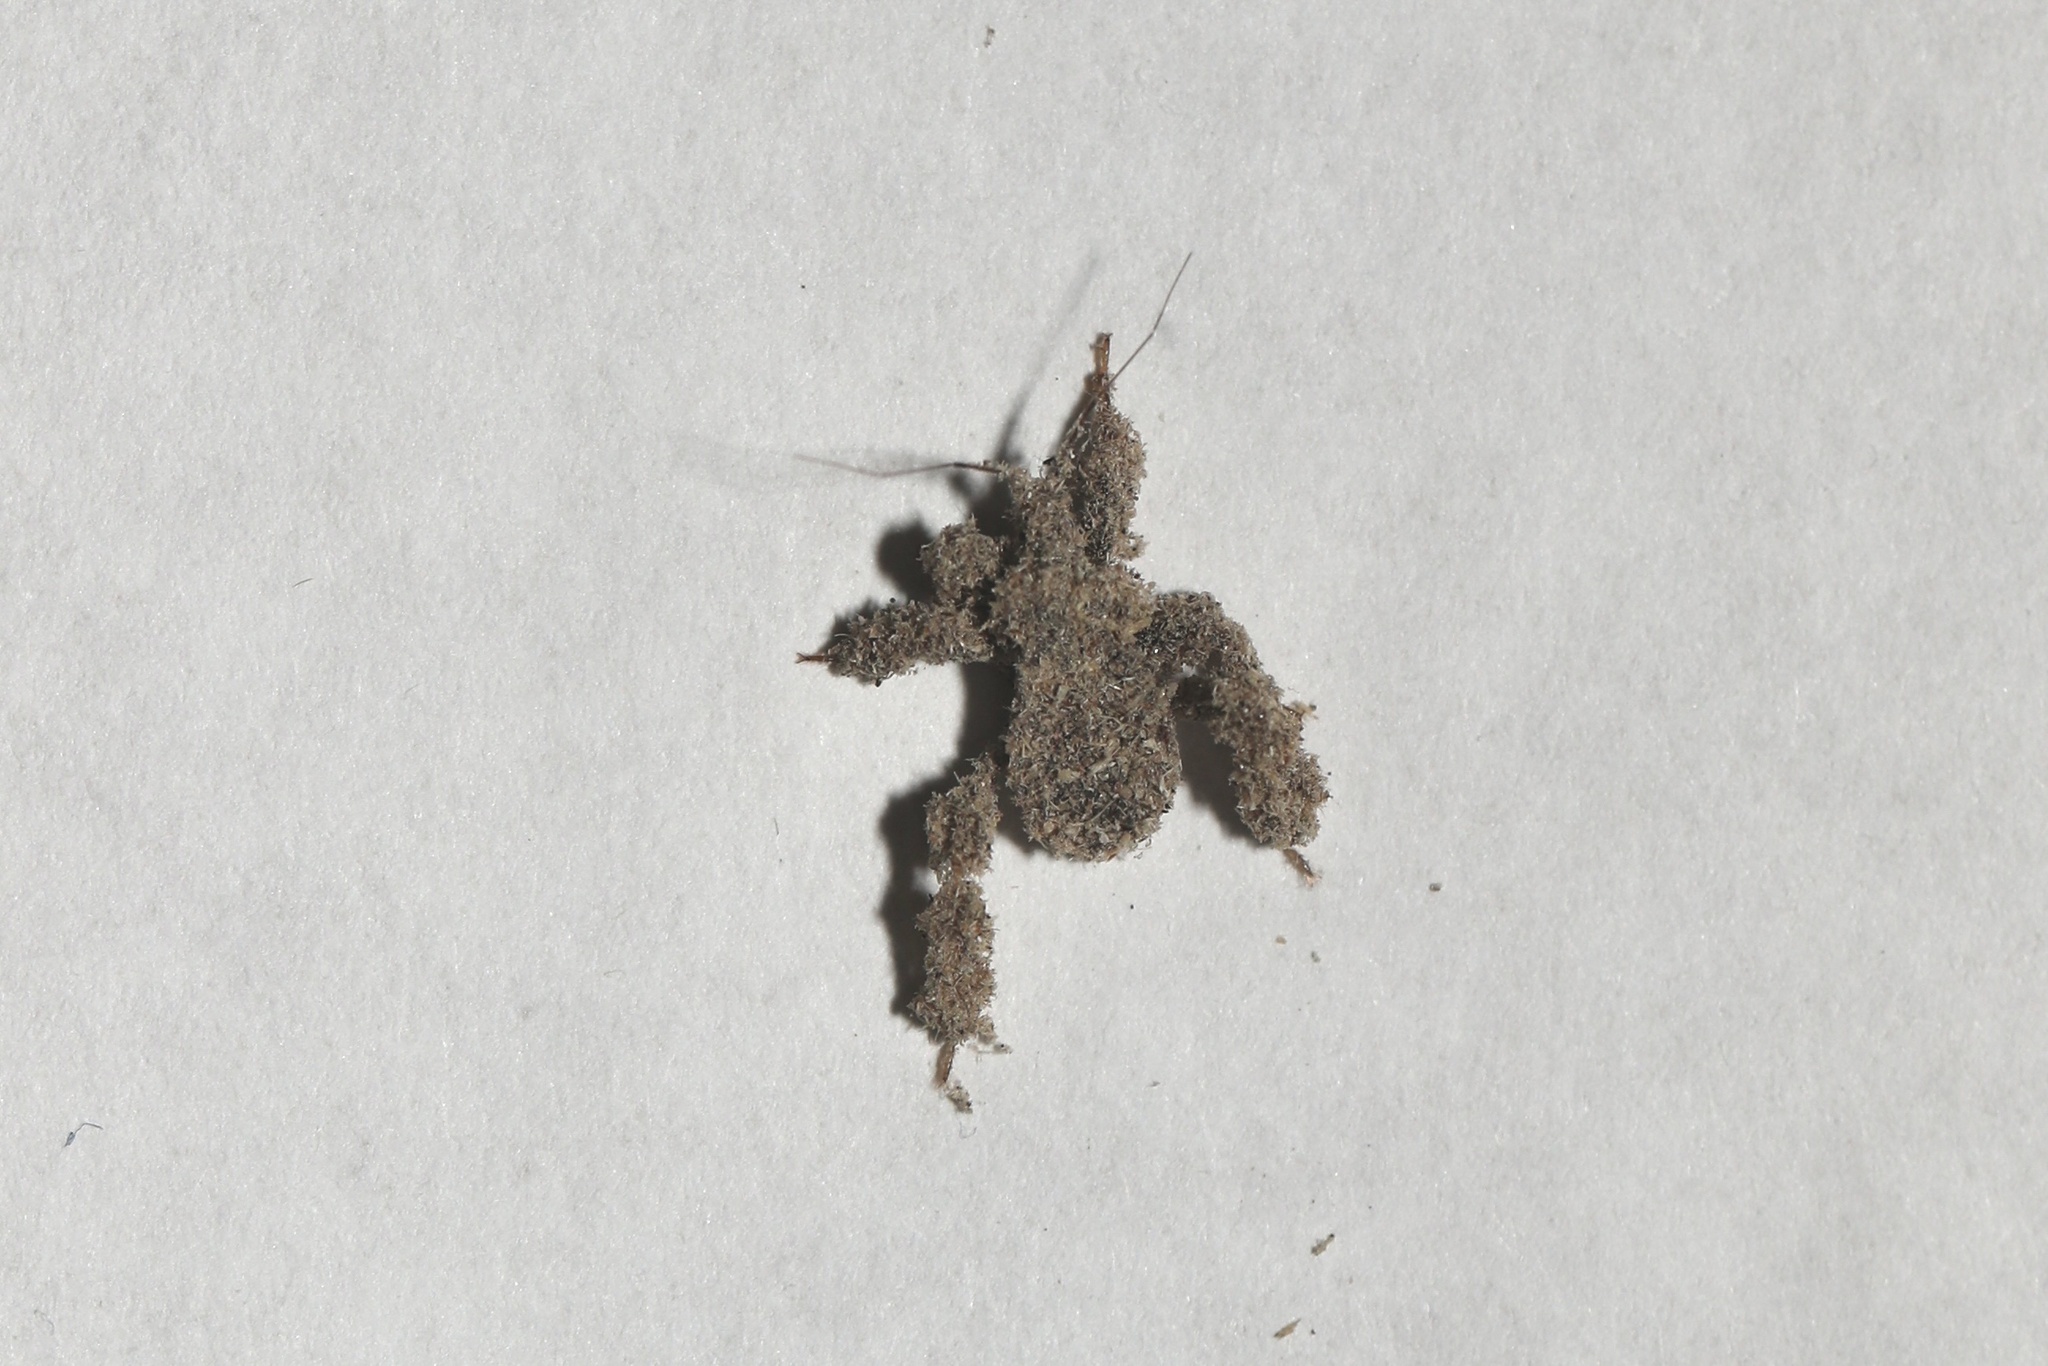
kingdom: Animalia
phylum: Arthropoda
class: Insecta
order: Hemiptera
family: Reduviidae
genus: Reduvius
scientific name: Reduvius personatus
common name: Masked hunter
